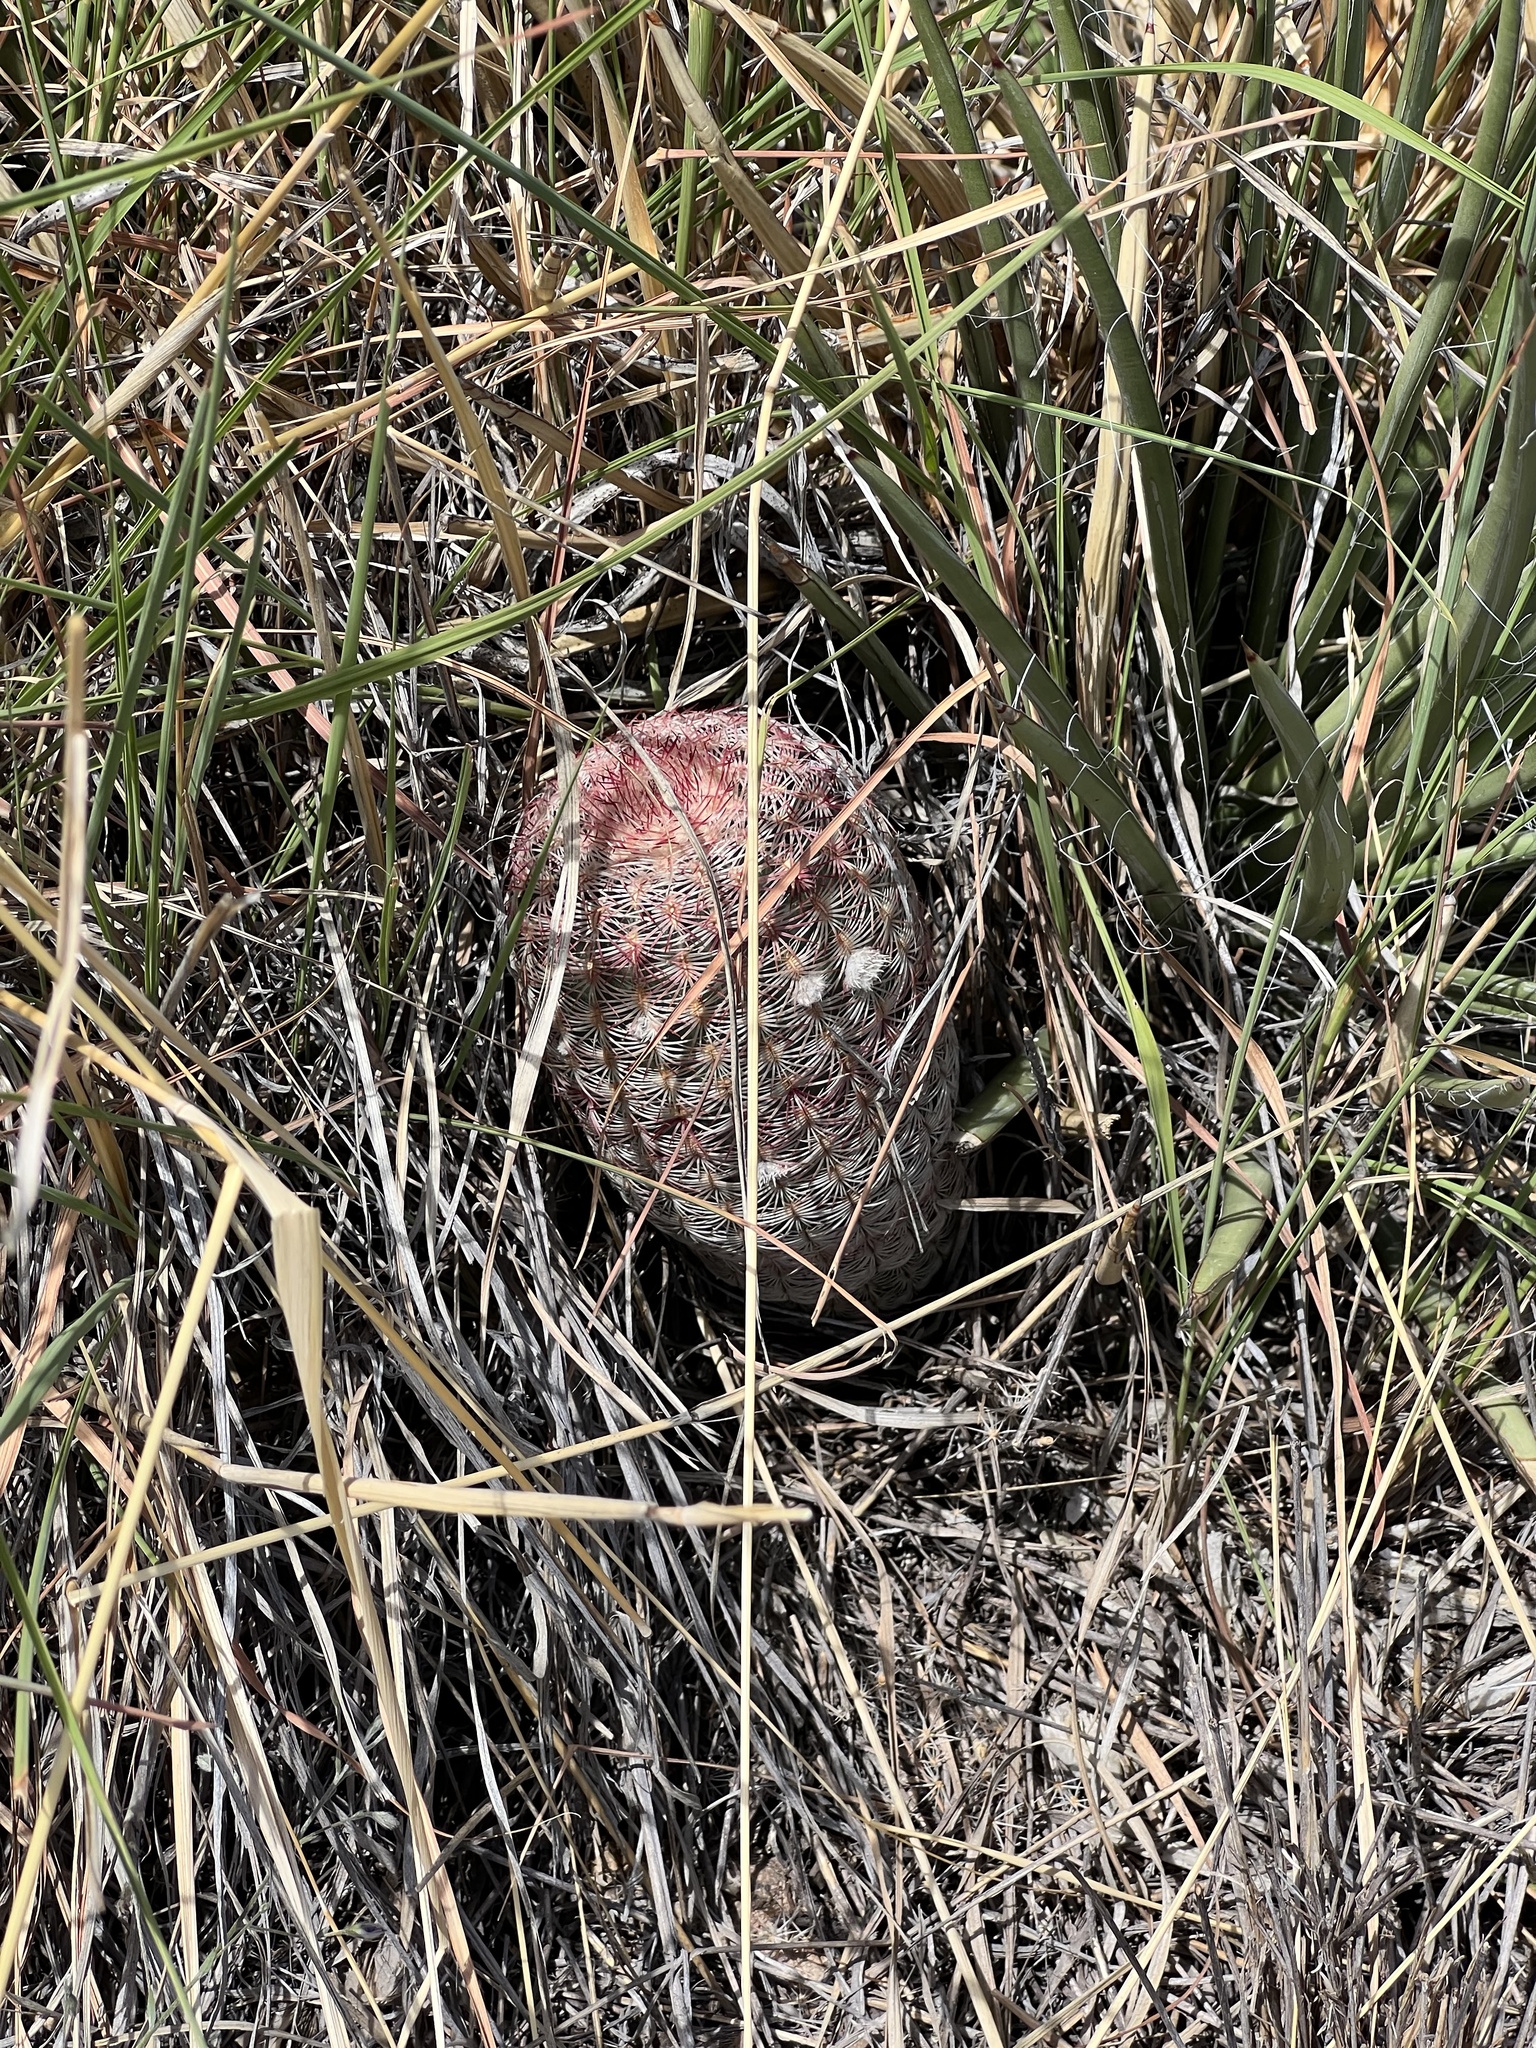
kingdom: Plantae
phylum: Tracheophyta
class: Magnoliopsida
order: Caryophyllales
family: Cactaceae
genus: Echinocereus
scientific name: Echinocereus rigidissimus
